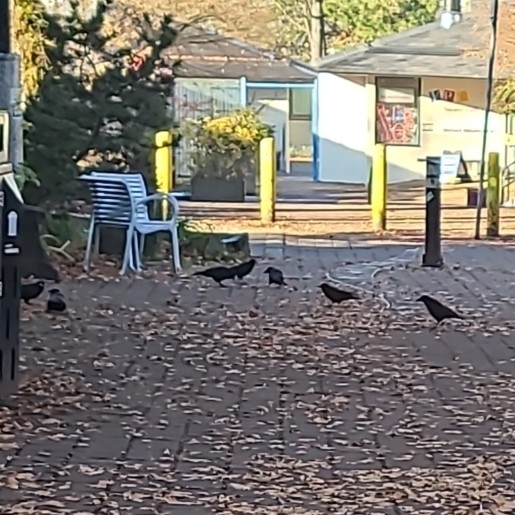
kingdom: Animalia
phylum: Chordata
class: Aves
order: Passeriformes
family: Corvidae
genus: Corvus
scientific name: Corvus brachyrhynchos
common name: American crow
